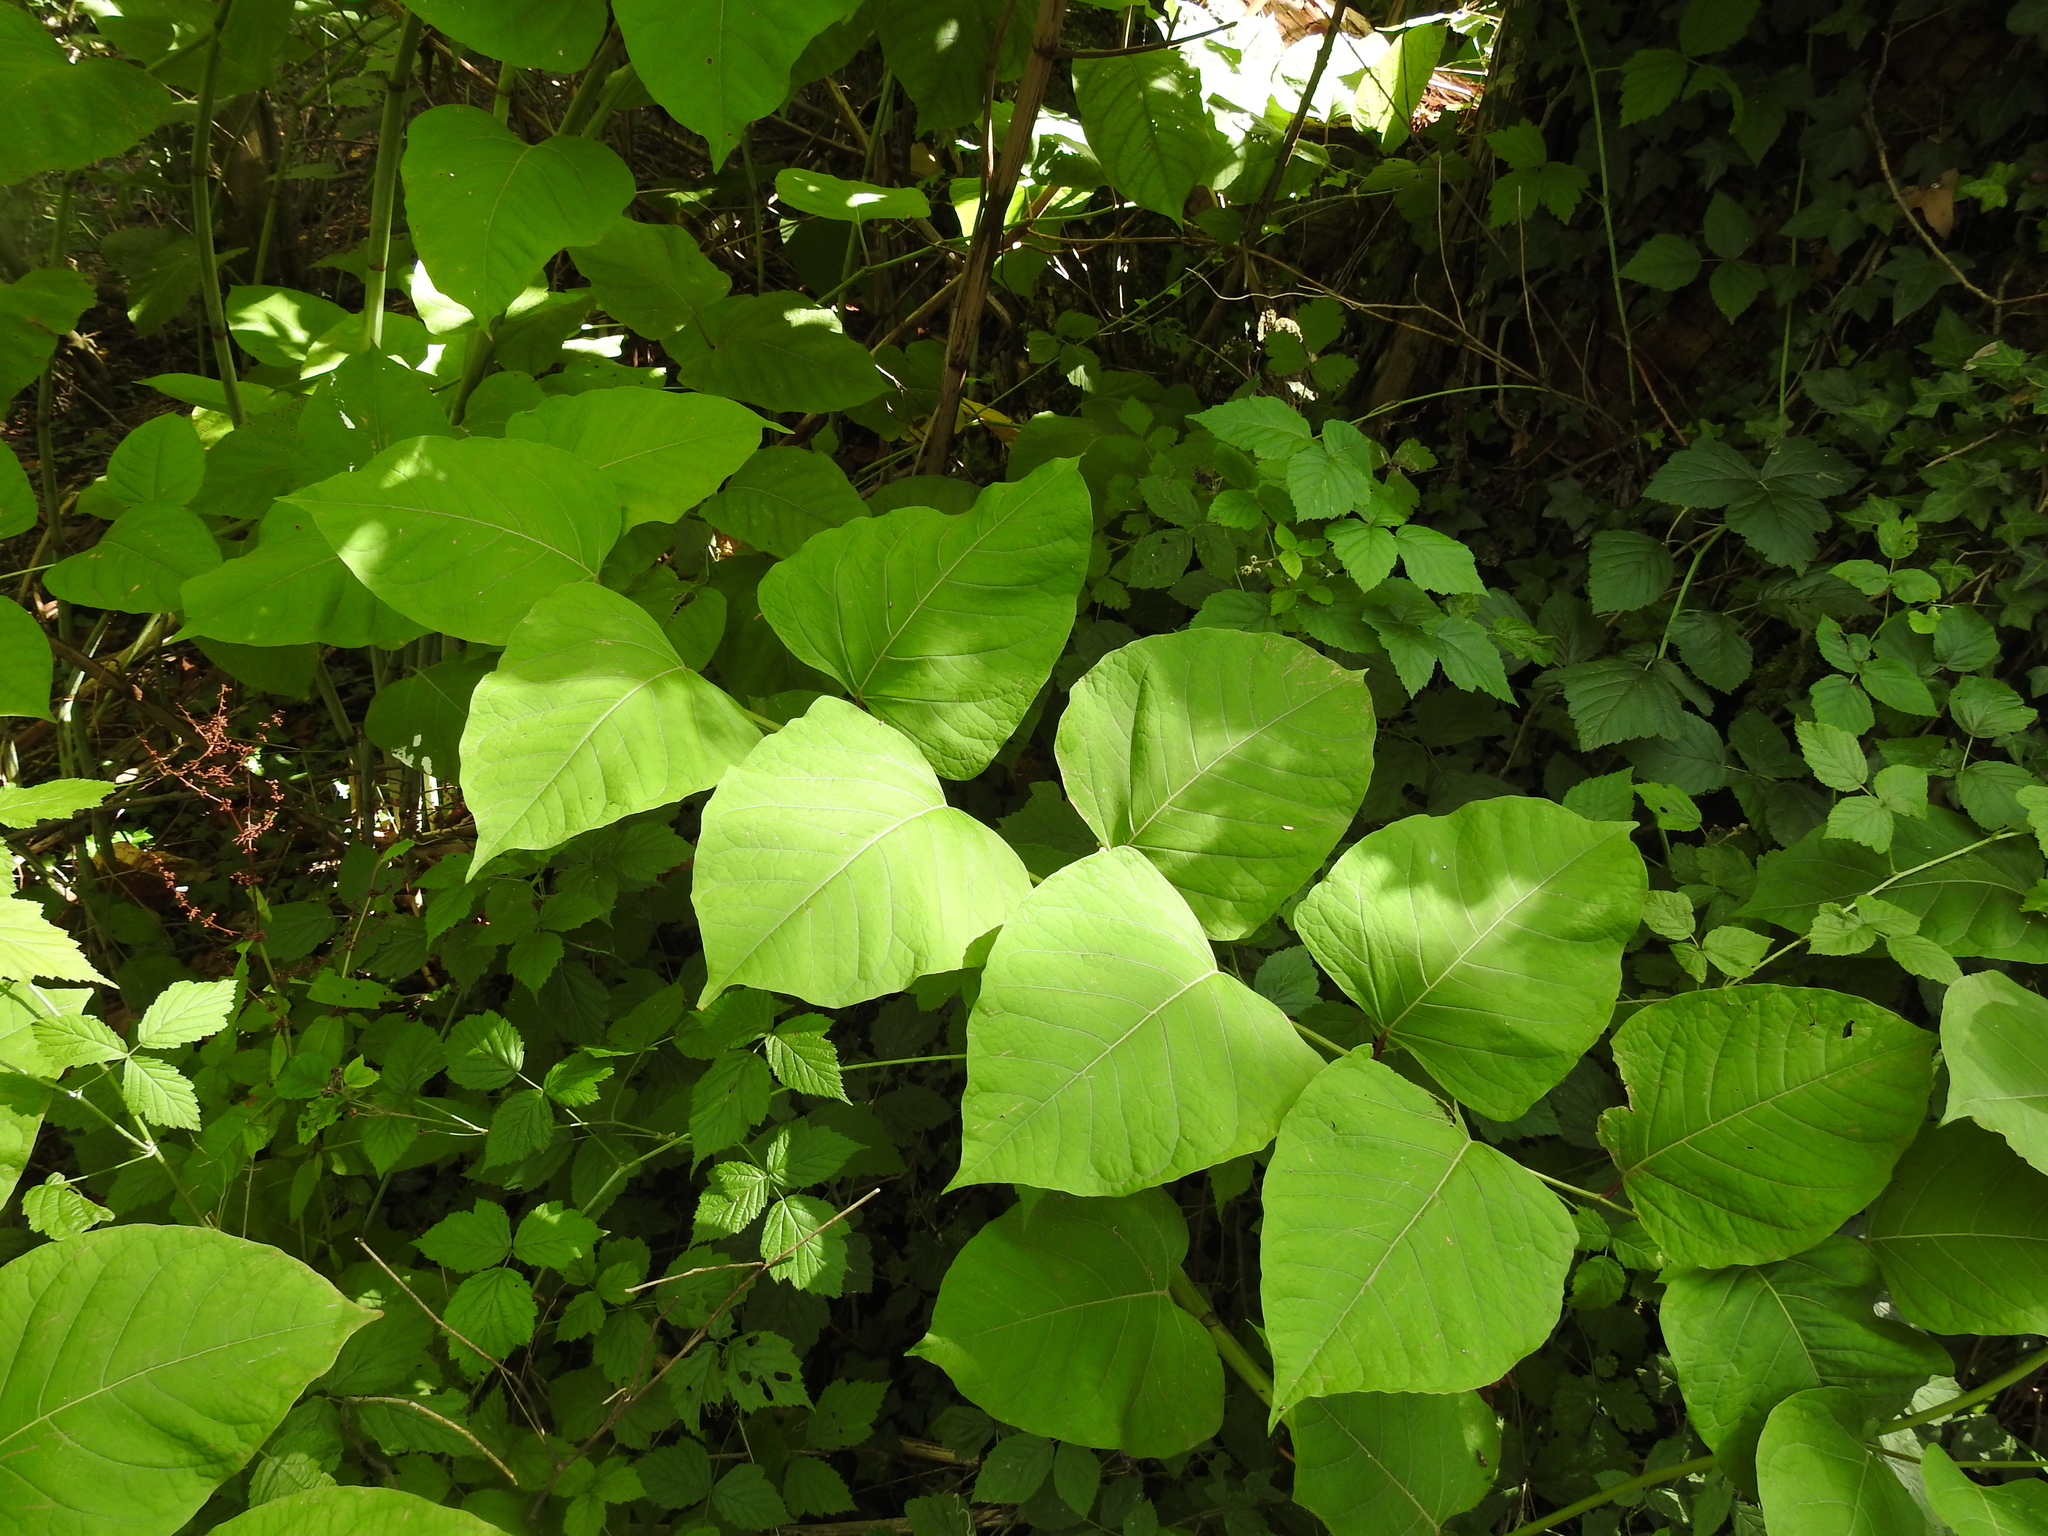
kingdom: Plantae
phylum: Tracheophyta
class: Magnoliopsida
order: Caryophyllales
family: Polygonaceae
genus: Reynoutria
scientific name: Reynoutria bohemica
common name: Bohemian knotweed
